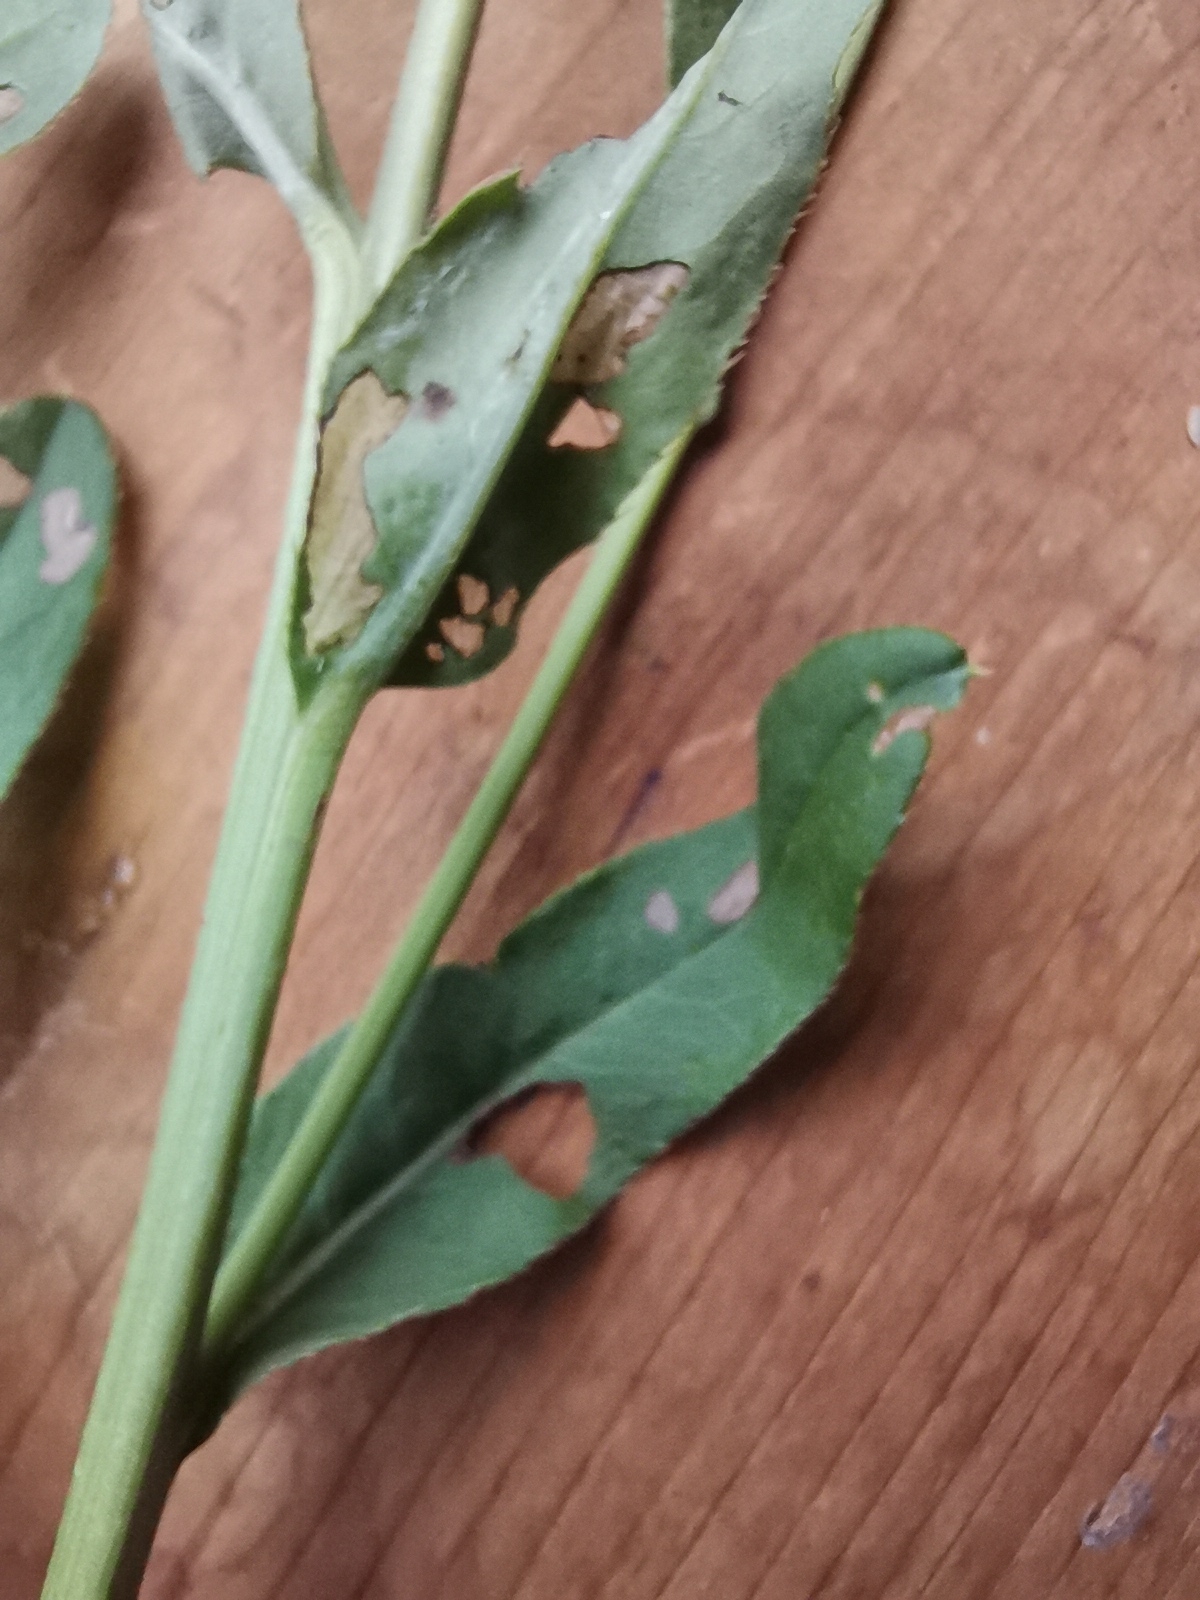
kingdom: Plantae
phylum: Tracheophyta
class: Magnoliopsida
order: Asterales
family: Asteraceae
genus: Cirsium
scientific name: Cirsium arvense
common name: Creeping thistle
